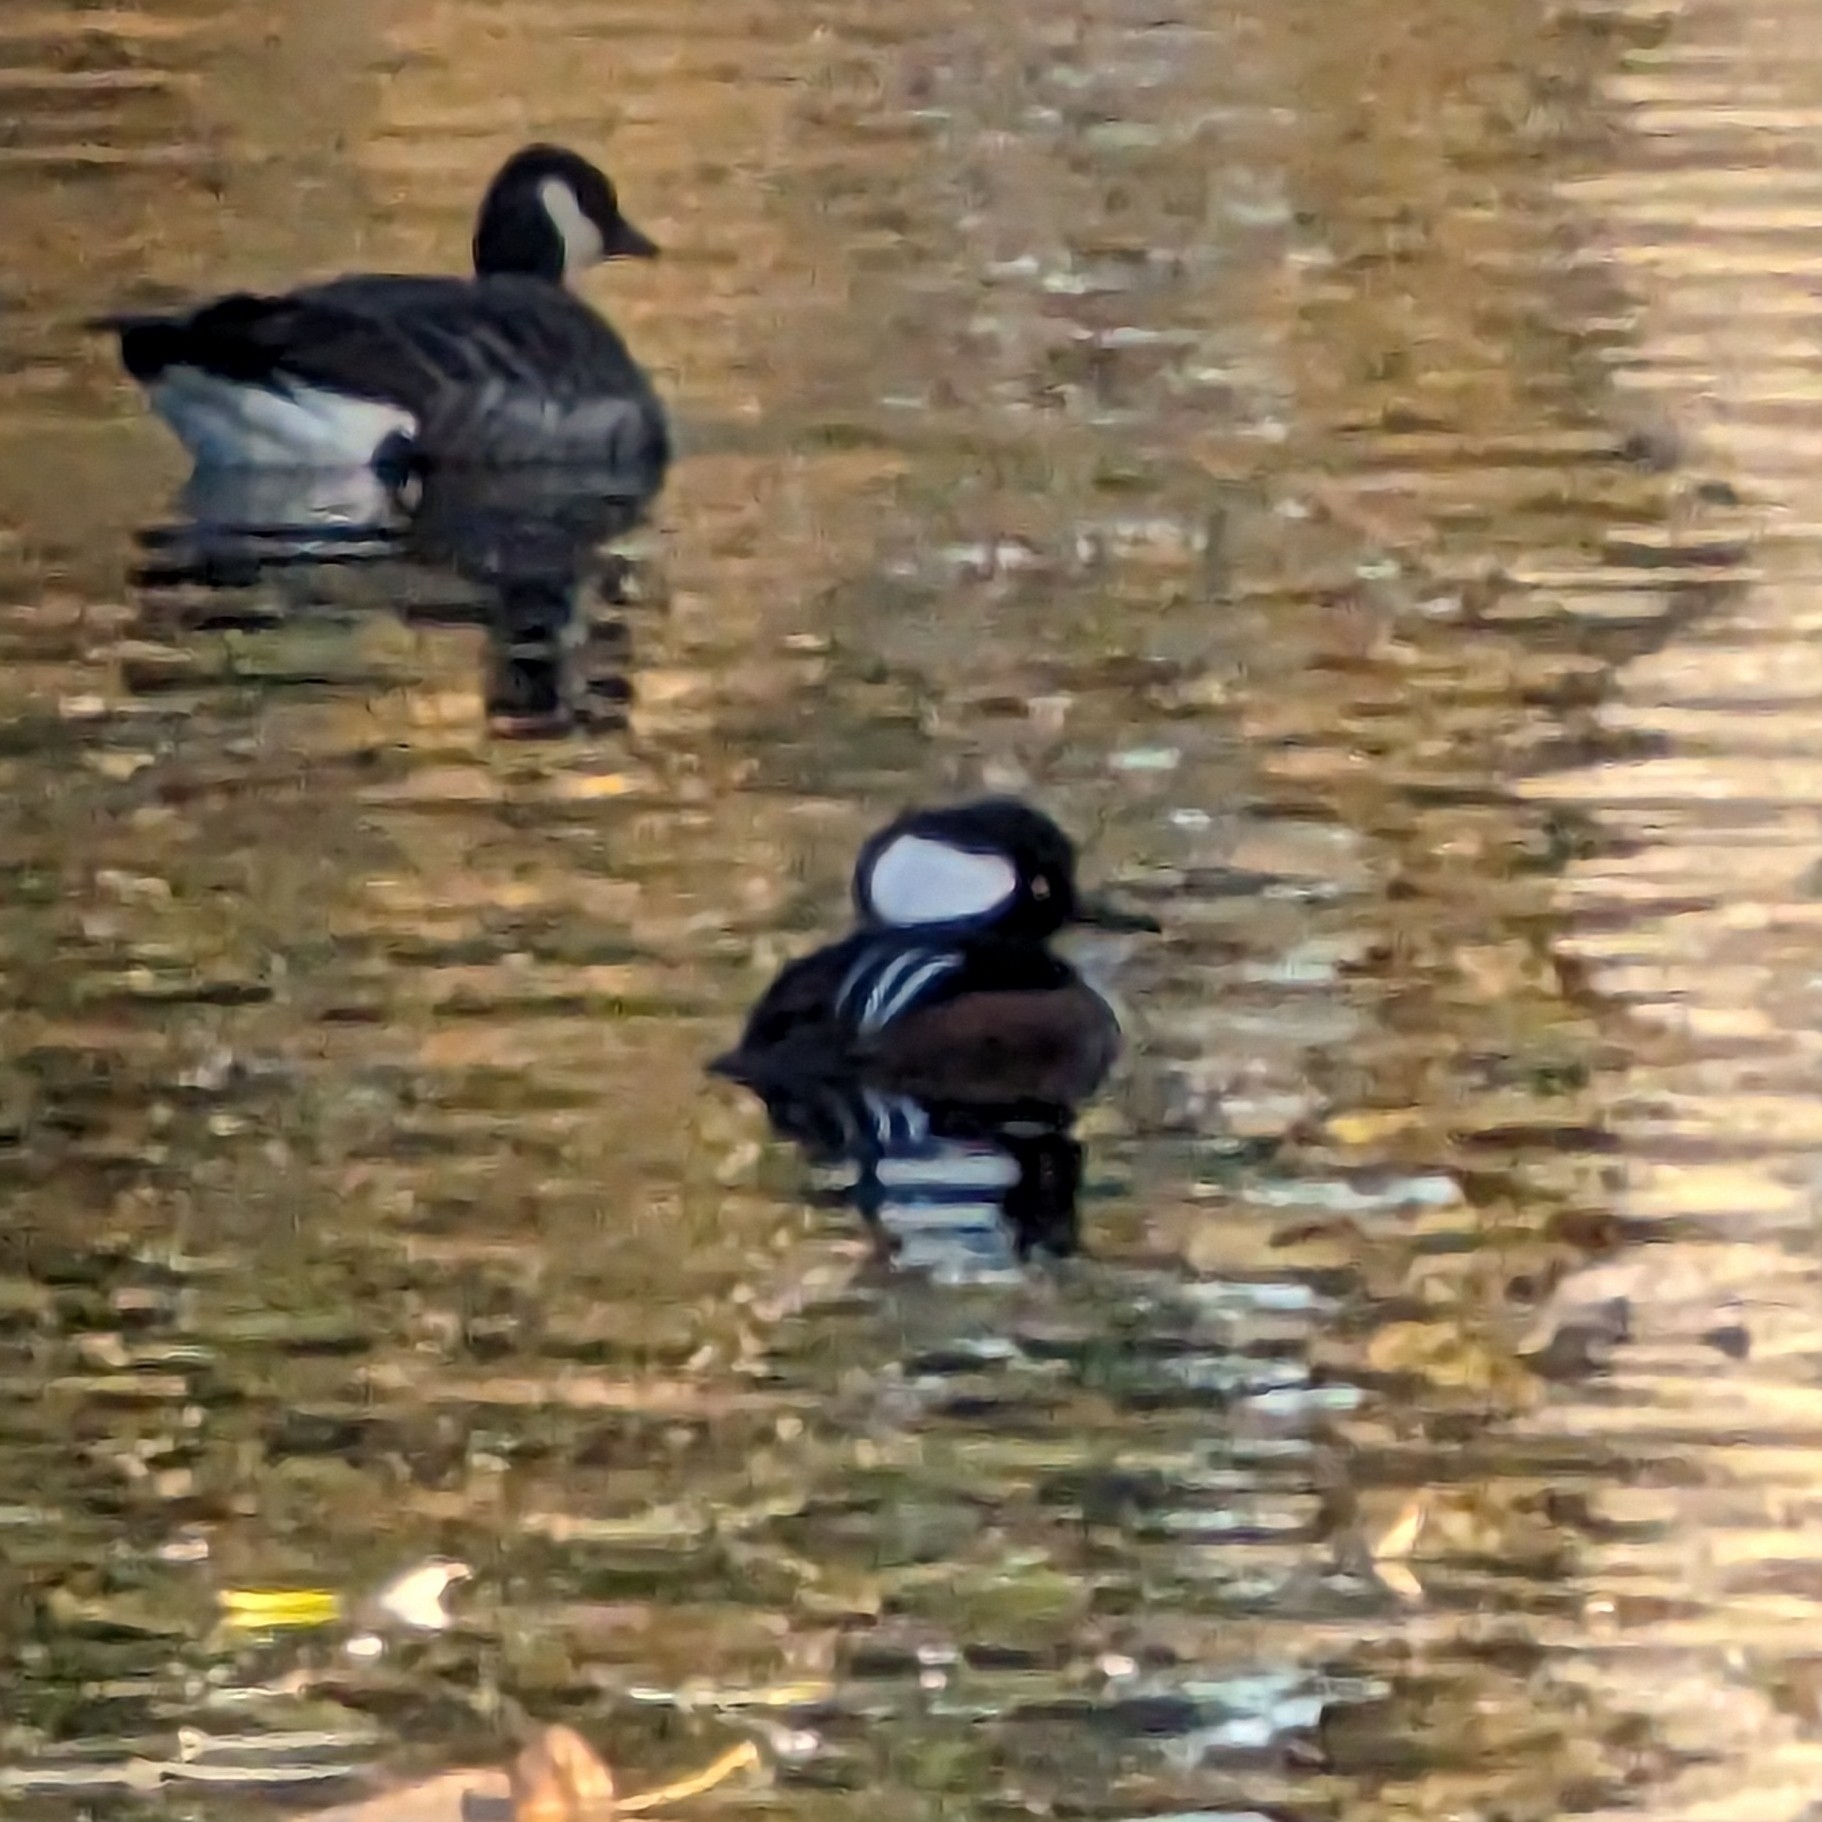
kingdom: Animalia
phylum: Chordata
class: Aves
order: Anseriformes
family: Anatidae
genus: Lophodytes
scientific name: Lophodytes cucullatus
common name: Hooded merganser
